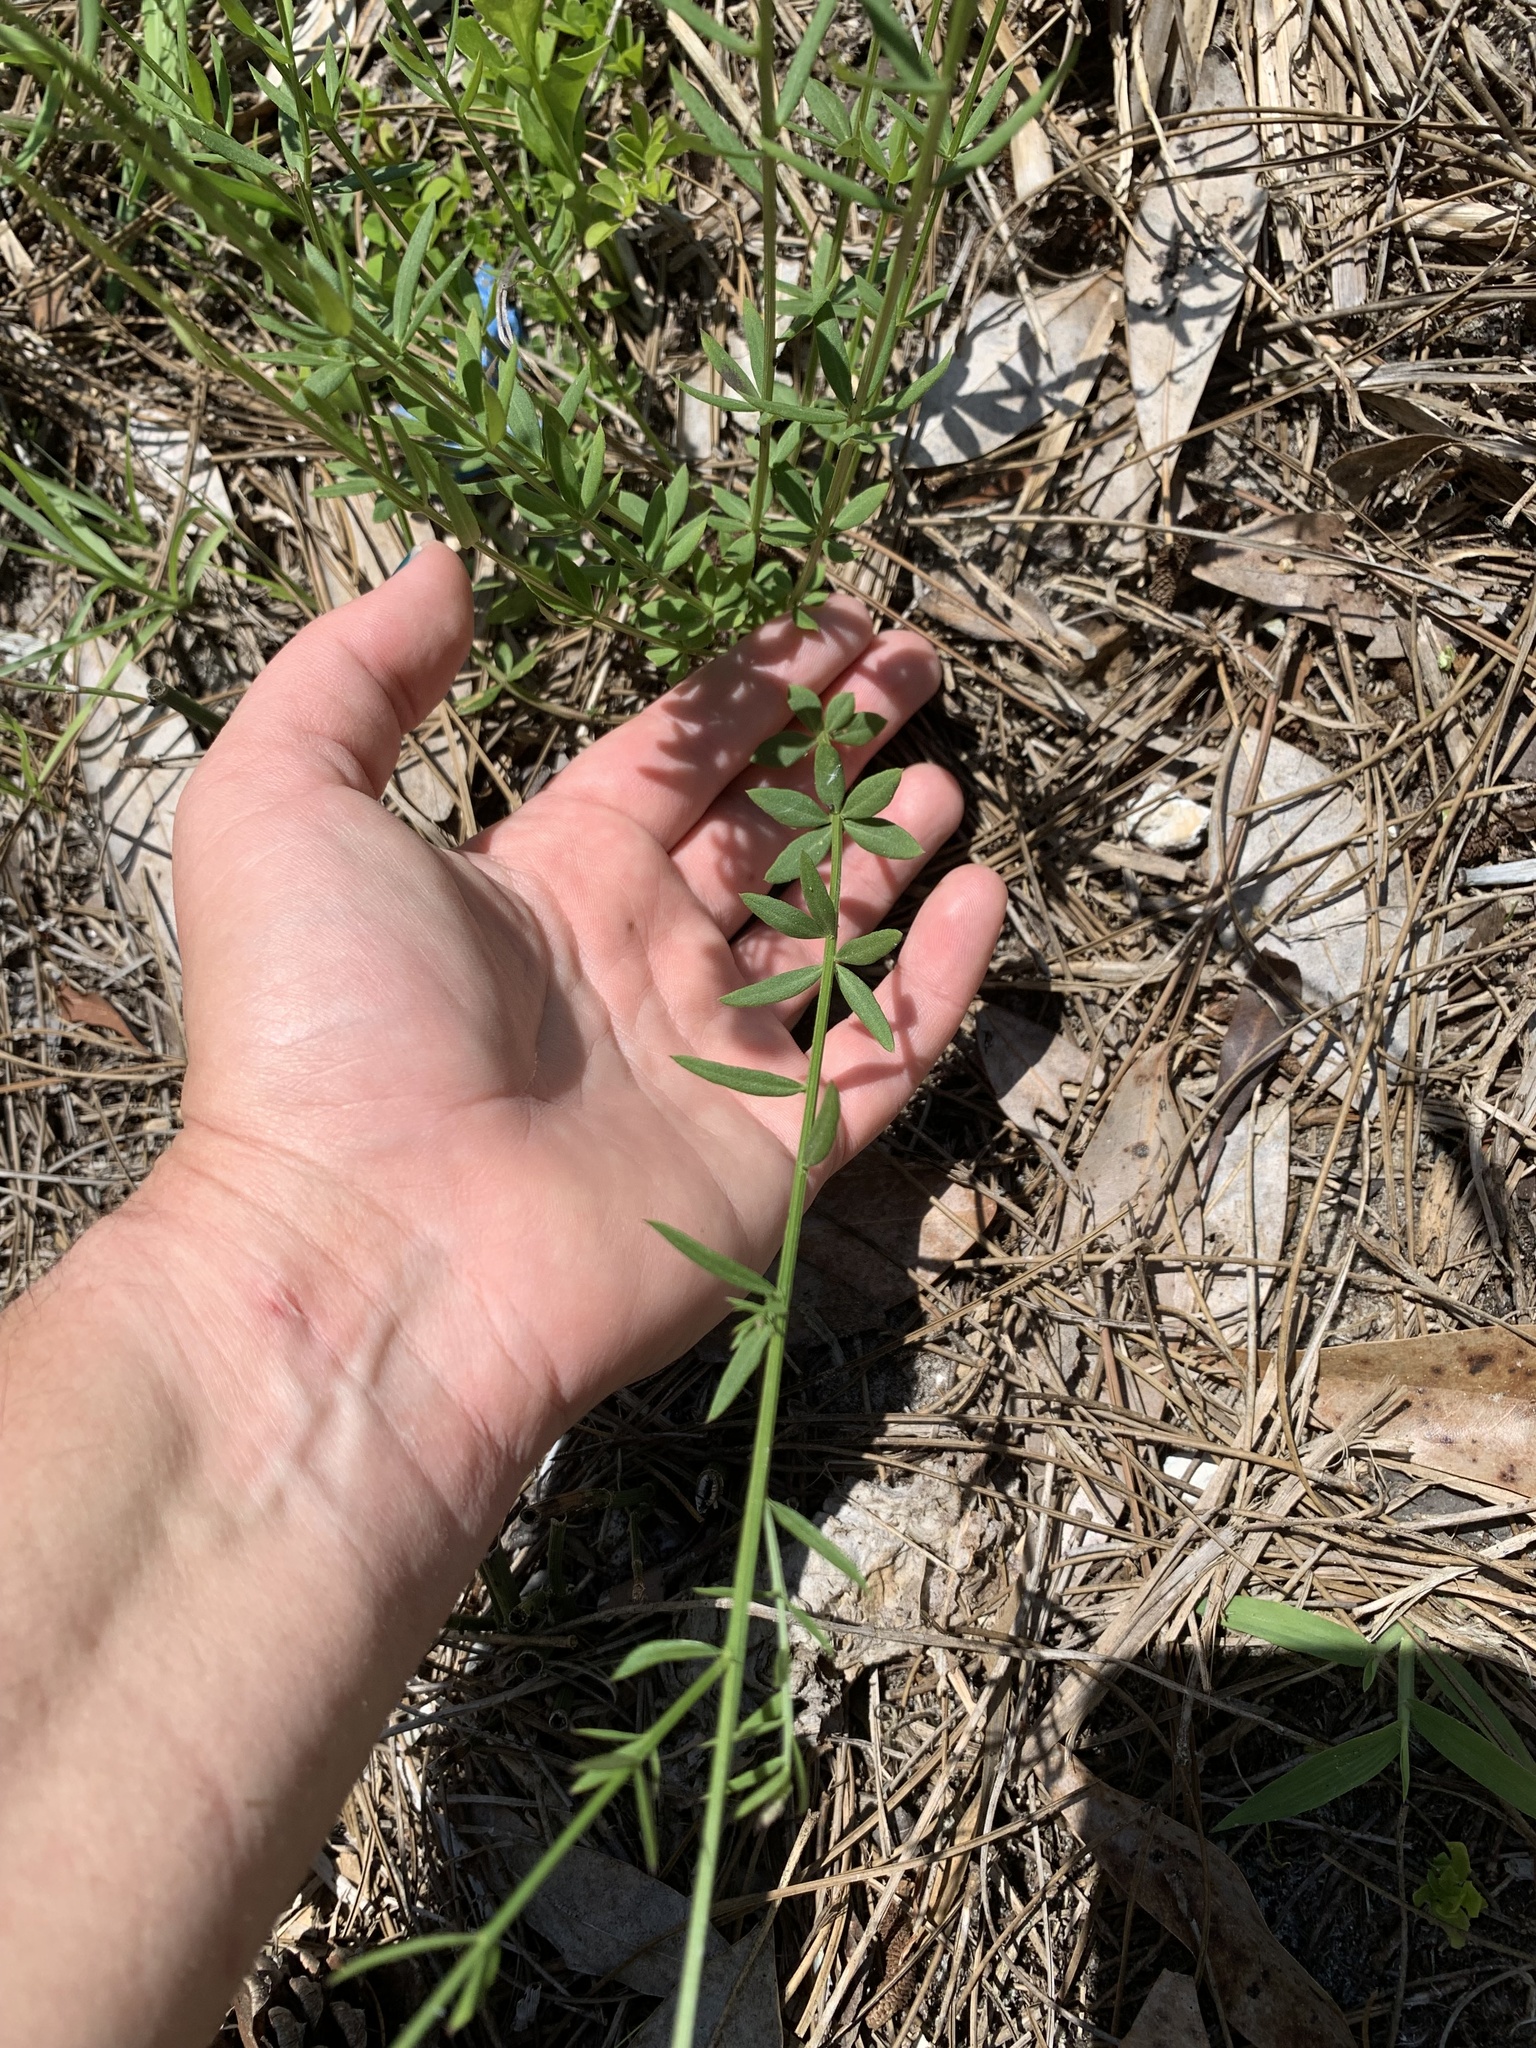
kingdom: Plantae
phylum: Tracheophyta
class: Magnoliopsida
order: Fabales
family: Polygalaceae
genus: Polygala
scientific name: Polygala boykinii
